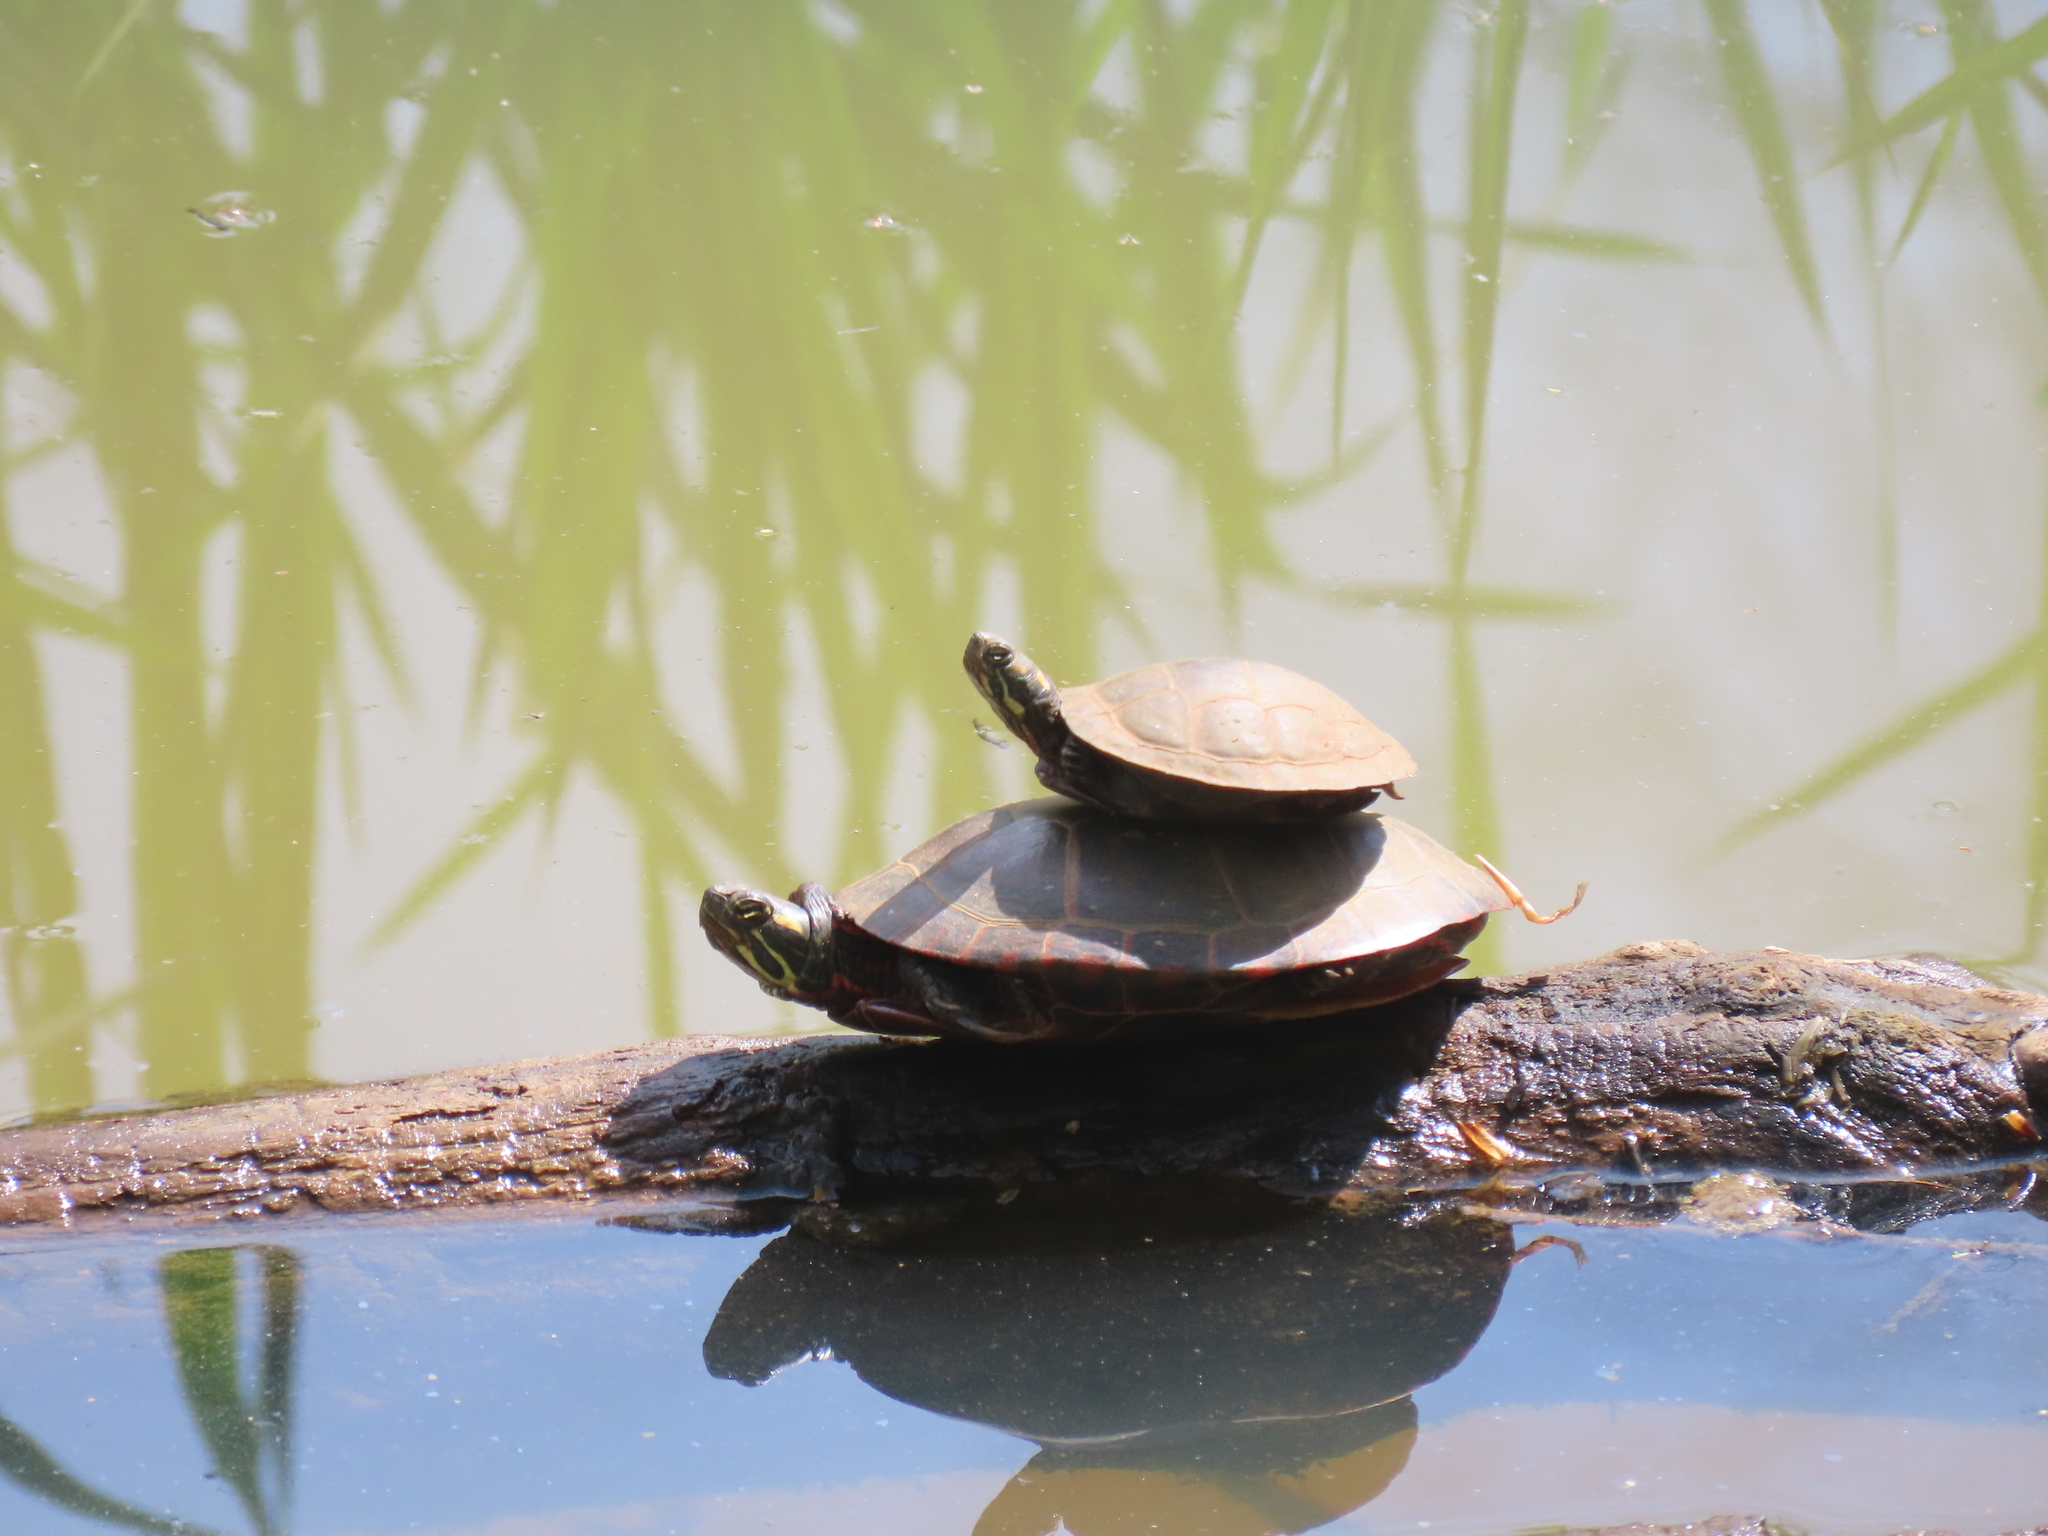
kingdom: Animalia
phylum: Chordata
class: Testudines
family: Emydidae
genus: Chrysemys
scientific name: Chrysemys picta
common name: Painted turtle
